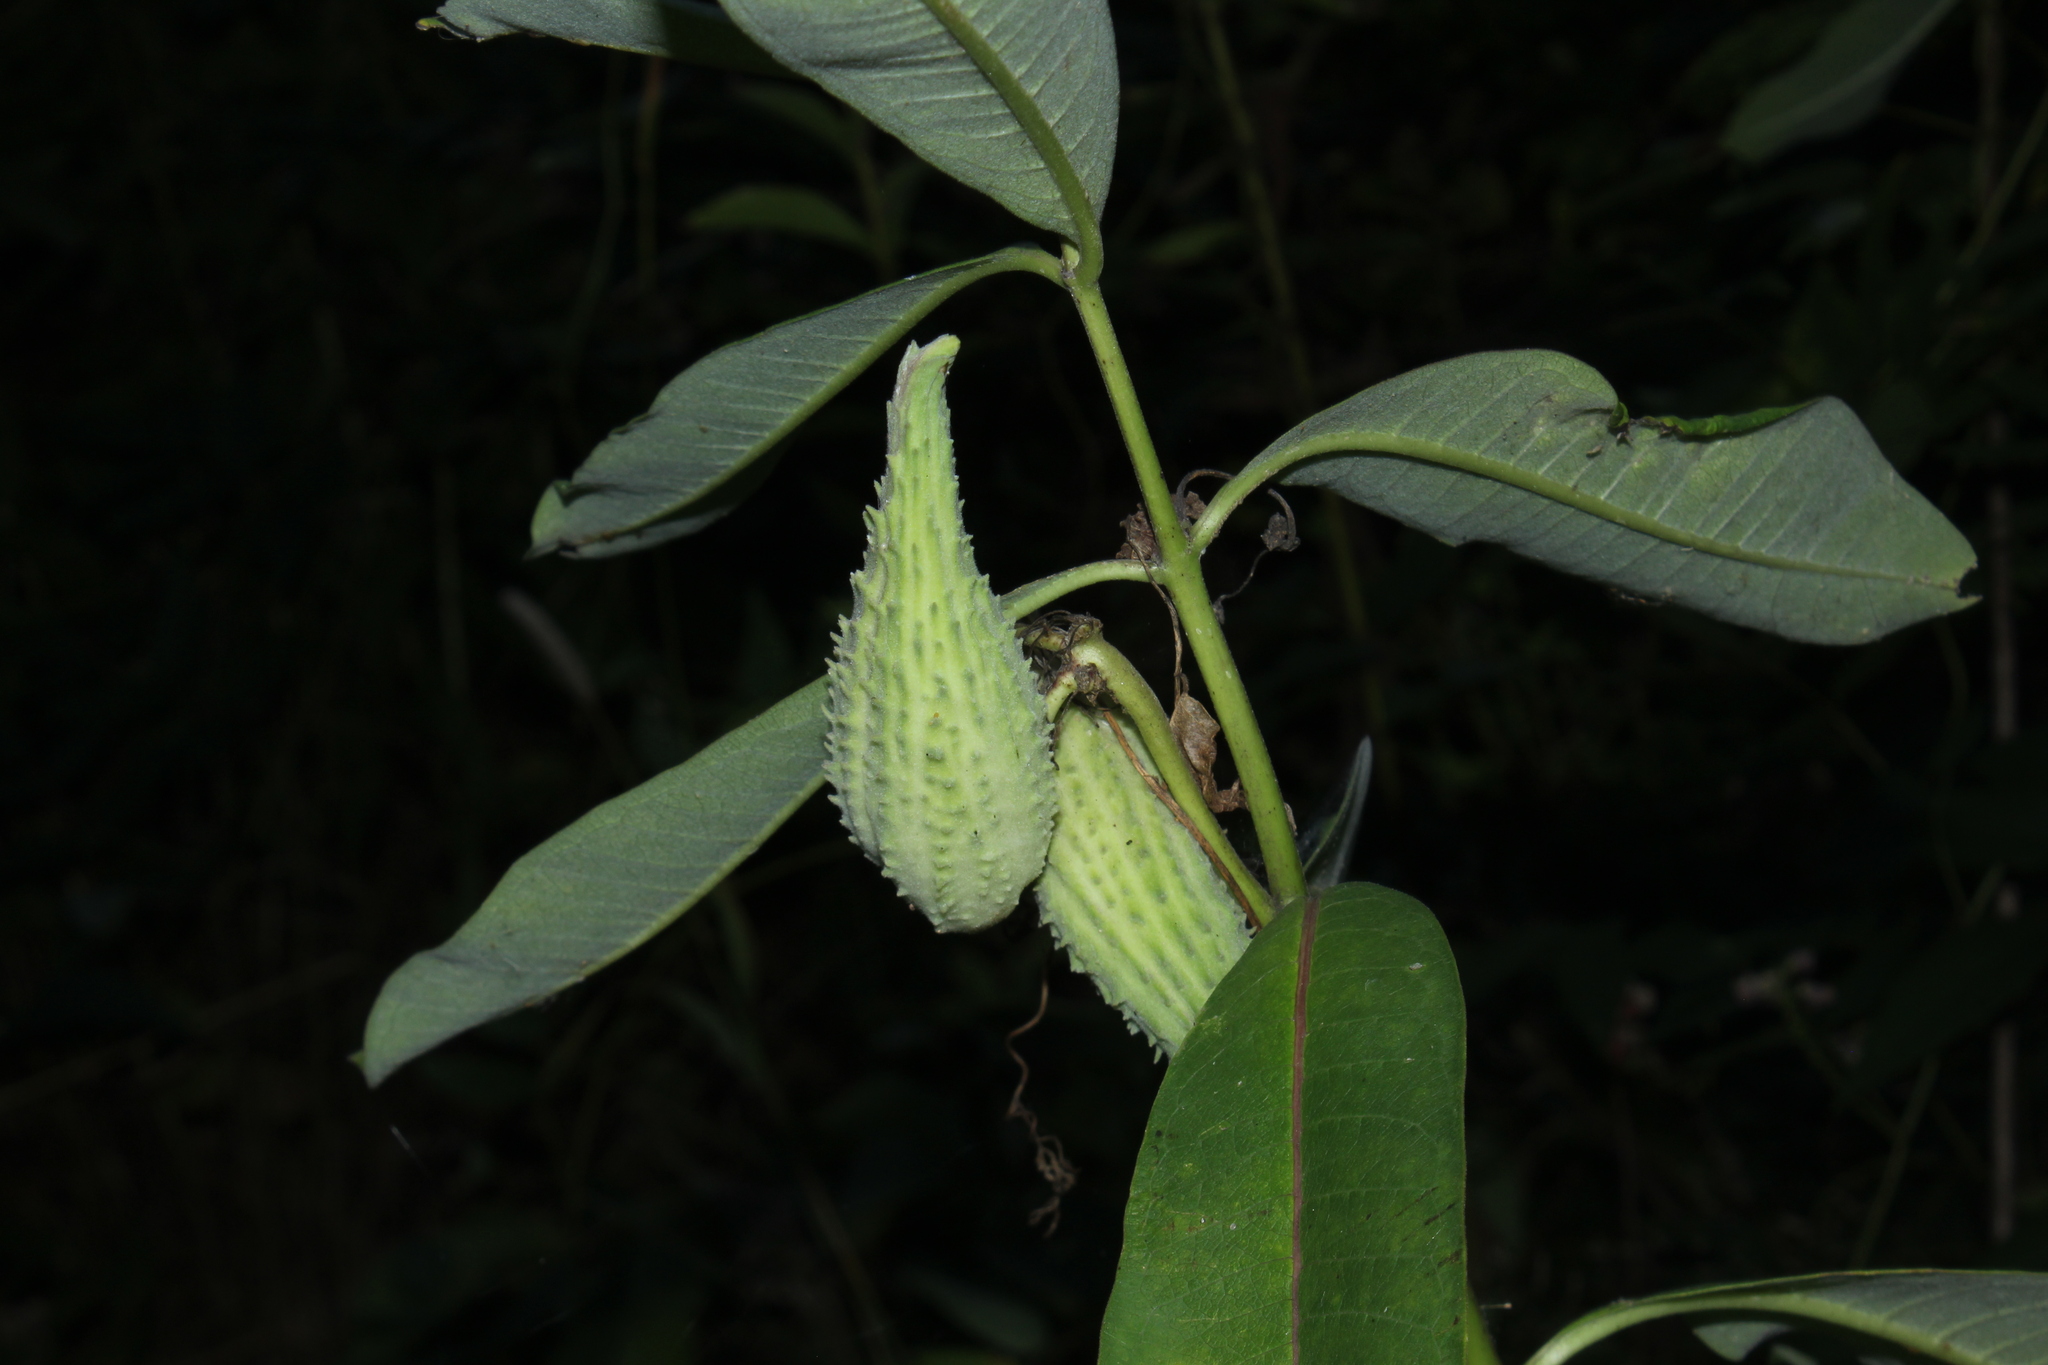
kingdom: Plantae
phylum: Tracheophyta
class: Magnoliopsida
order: Gentianales
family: Apocynaceae
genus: Asclepias
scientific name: Asclepias syriaca
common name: Common milkweed
